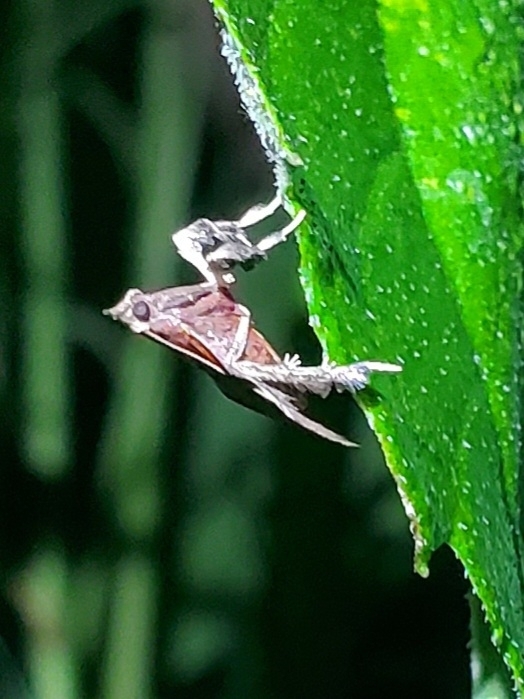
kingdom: Animalia
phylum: Arthropoda
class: Insecta
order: Lepidoptera
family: Pyralidae
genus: Galasa
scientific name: Galasa nigrinodis
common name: Boxwood leaftier moth
